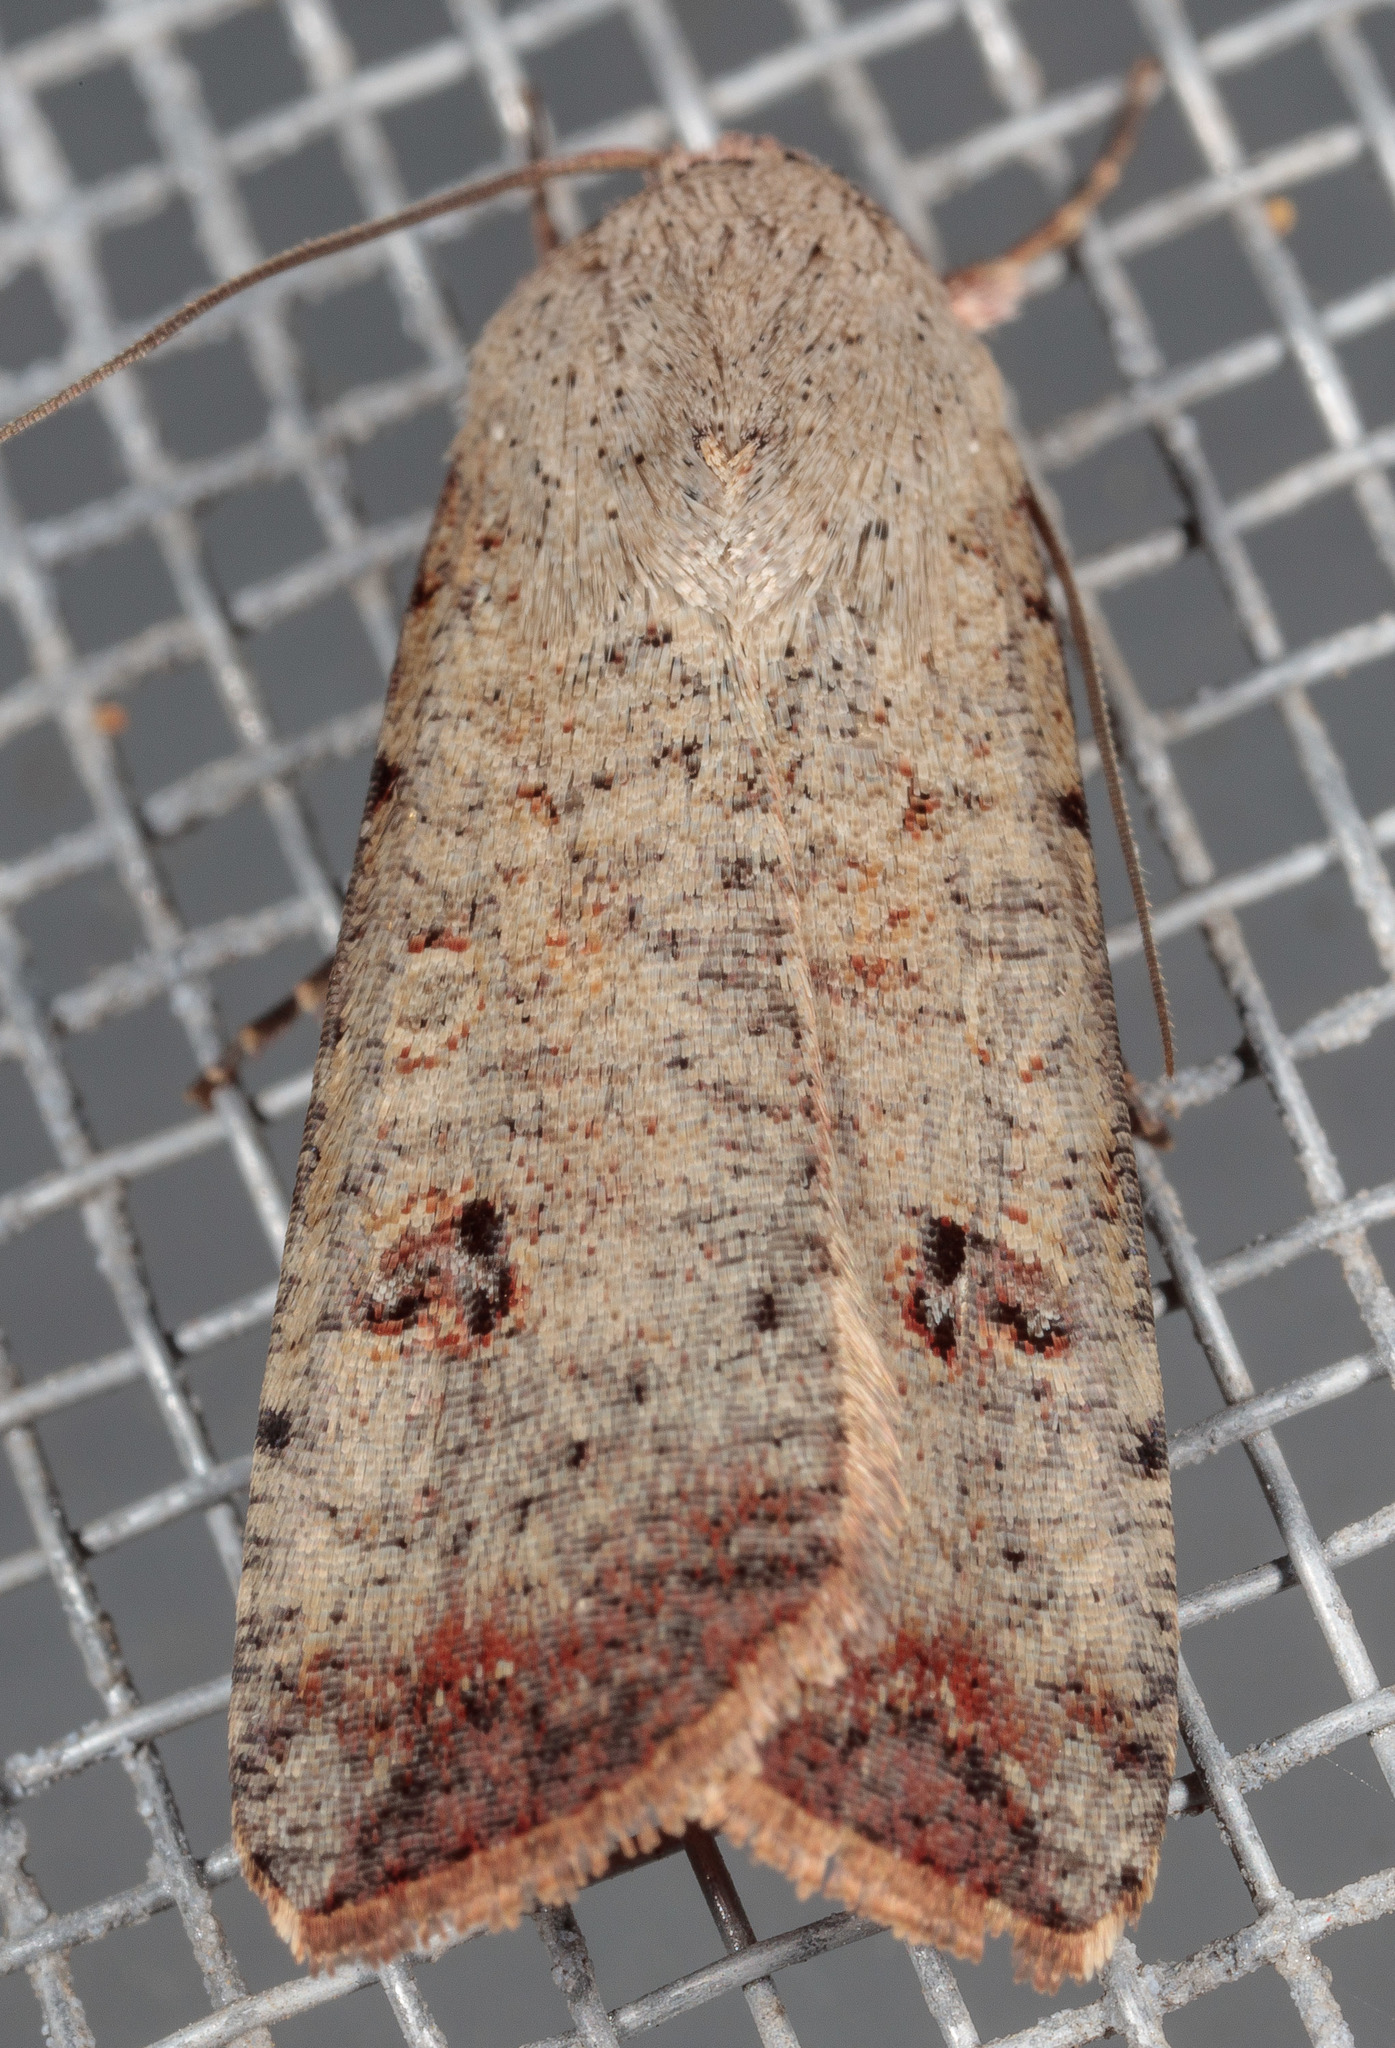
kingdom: Animalia
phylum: Arthropoda
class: Insecta
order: Lepidoptera
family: Noctuidae
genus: Anicla
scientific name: Anicla infecta
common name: Green cutworm
